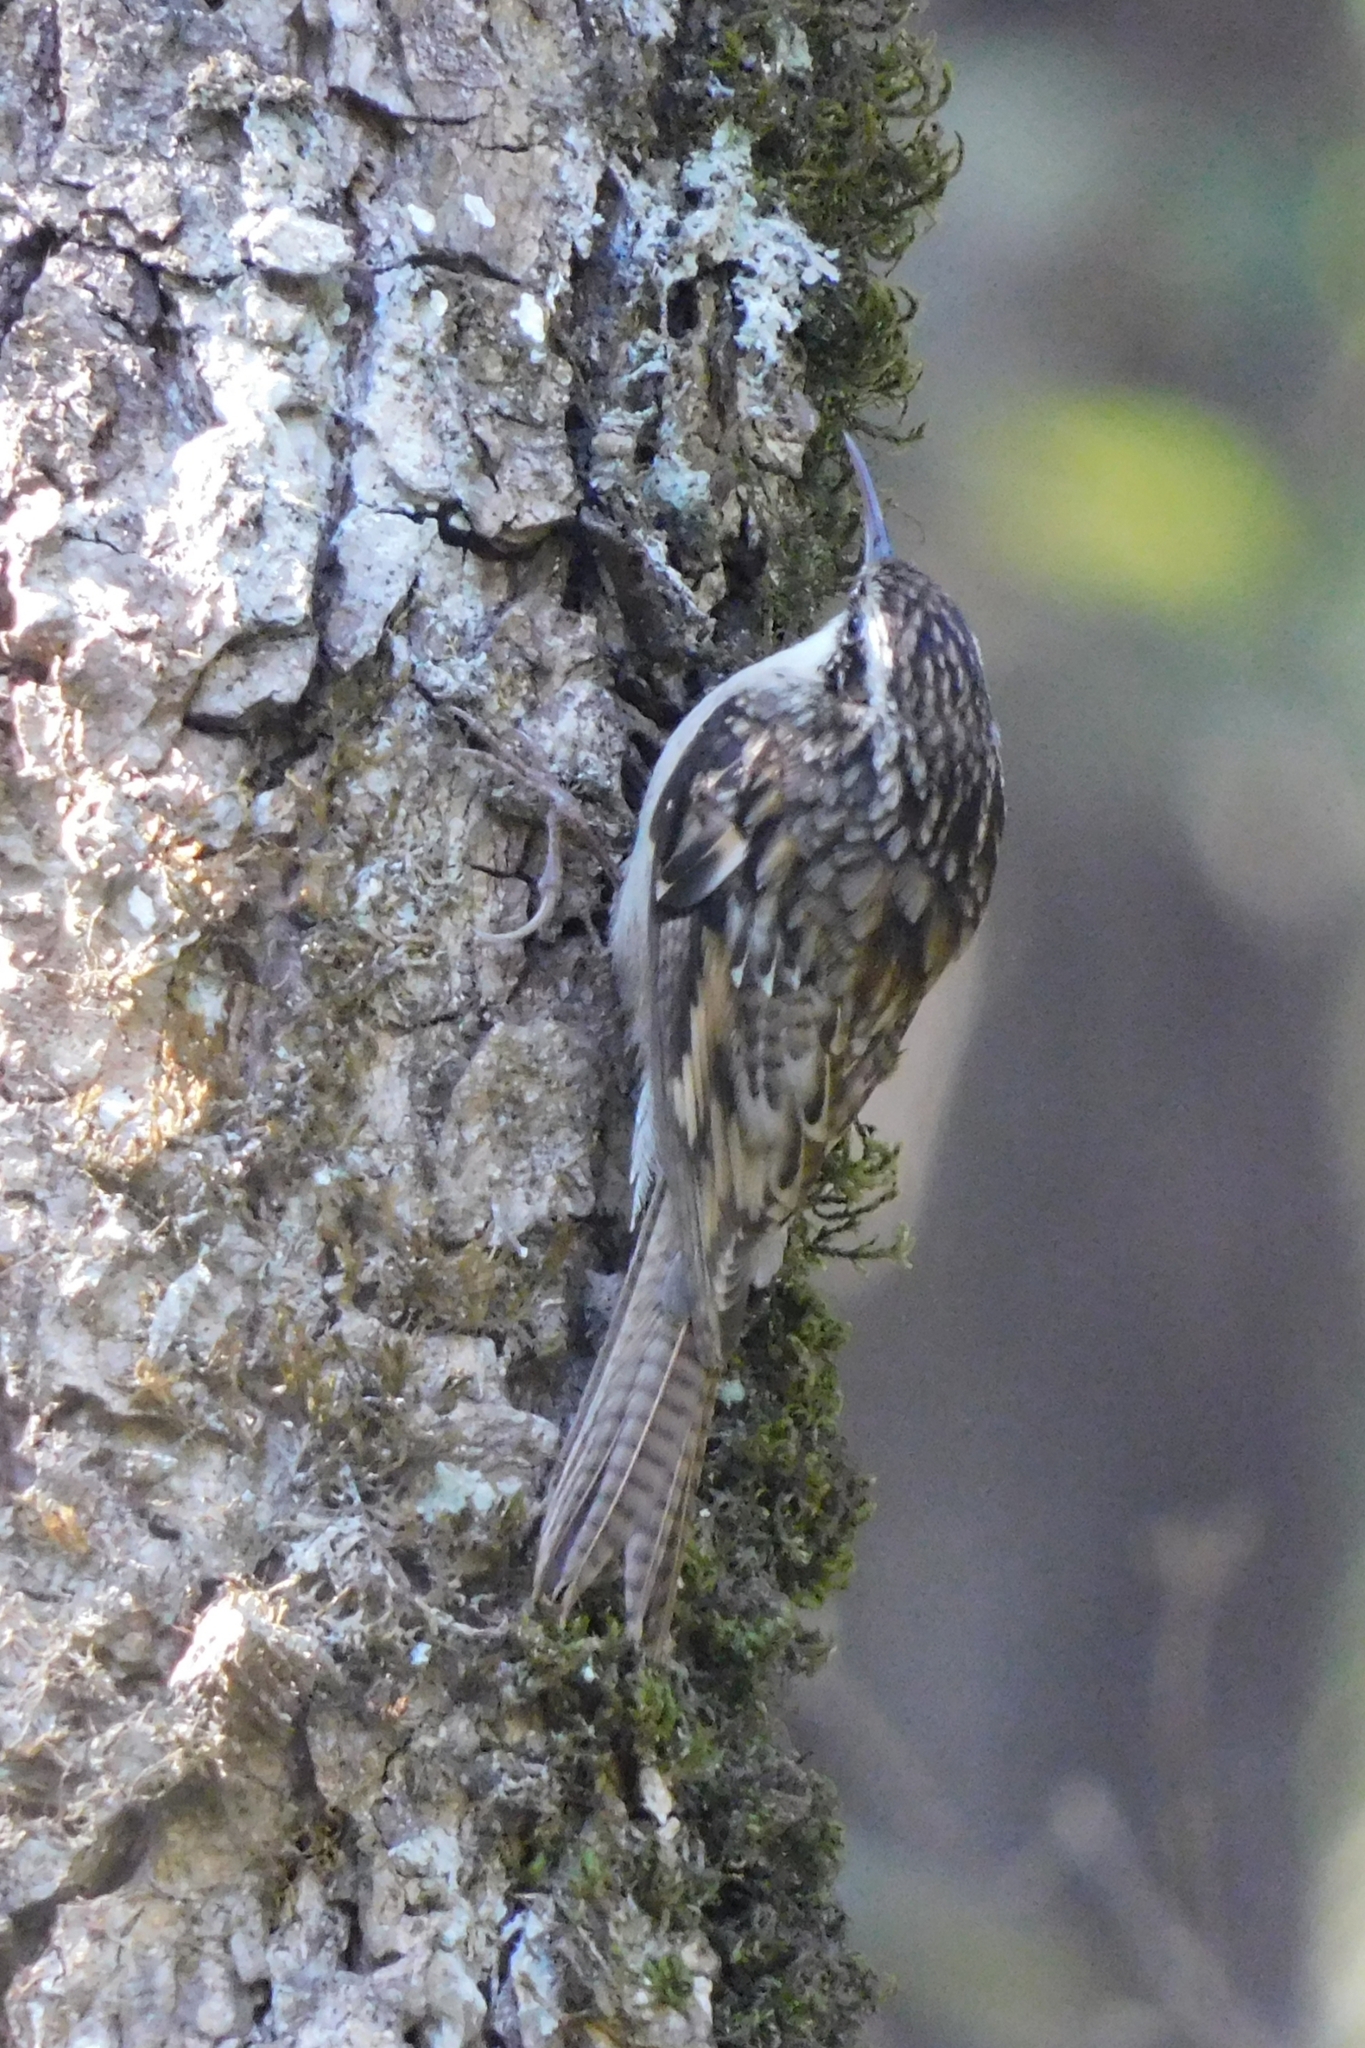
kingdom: Animalia
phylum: Chordata
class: Aves
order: Passeriformes
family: Certhiidae
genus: Certhia
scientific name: Certhia himalayana
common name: Bar-tailed treecreeper
